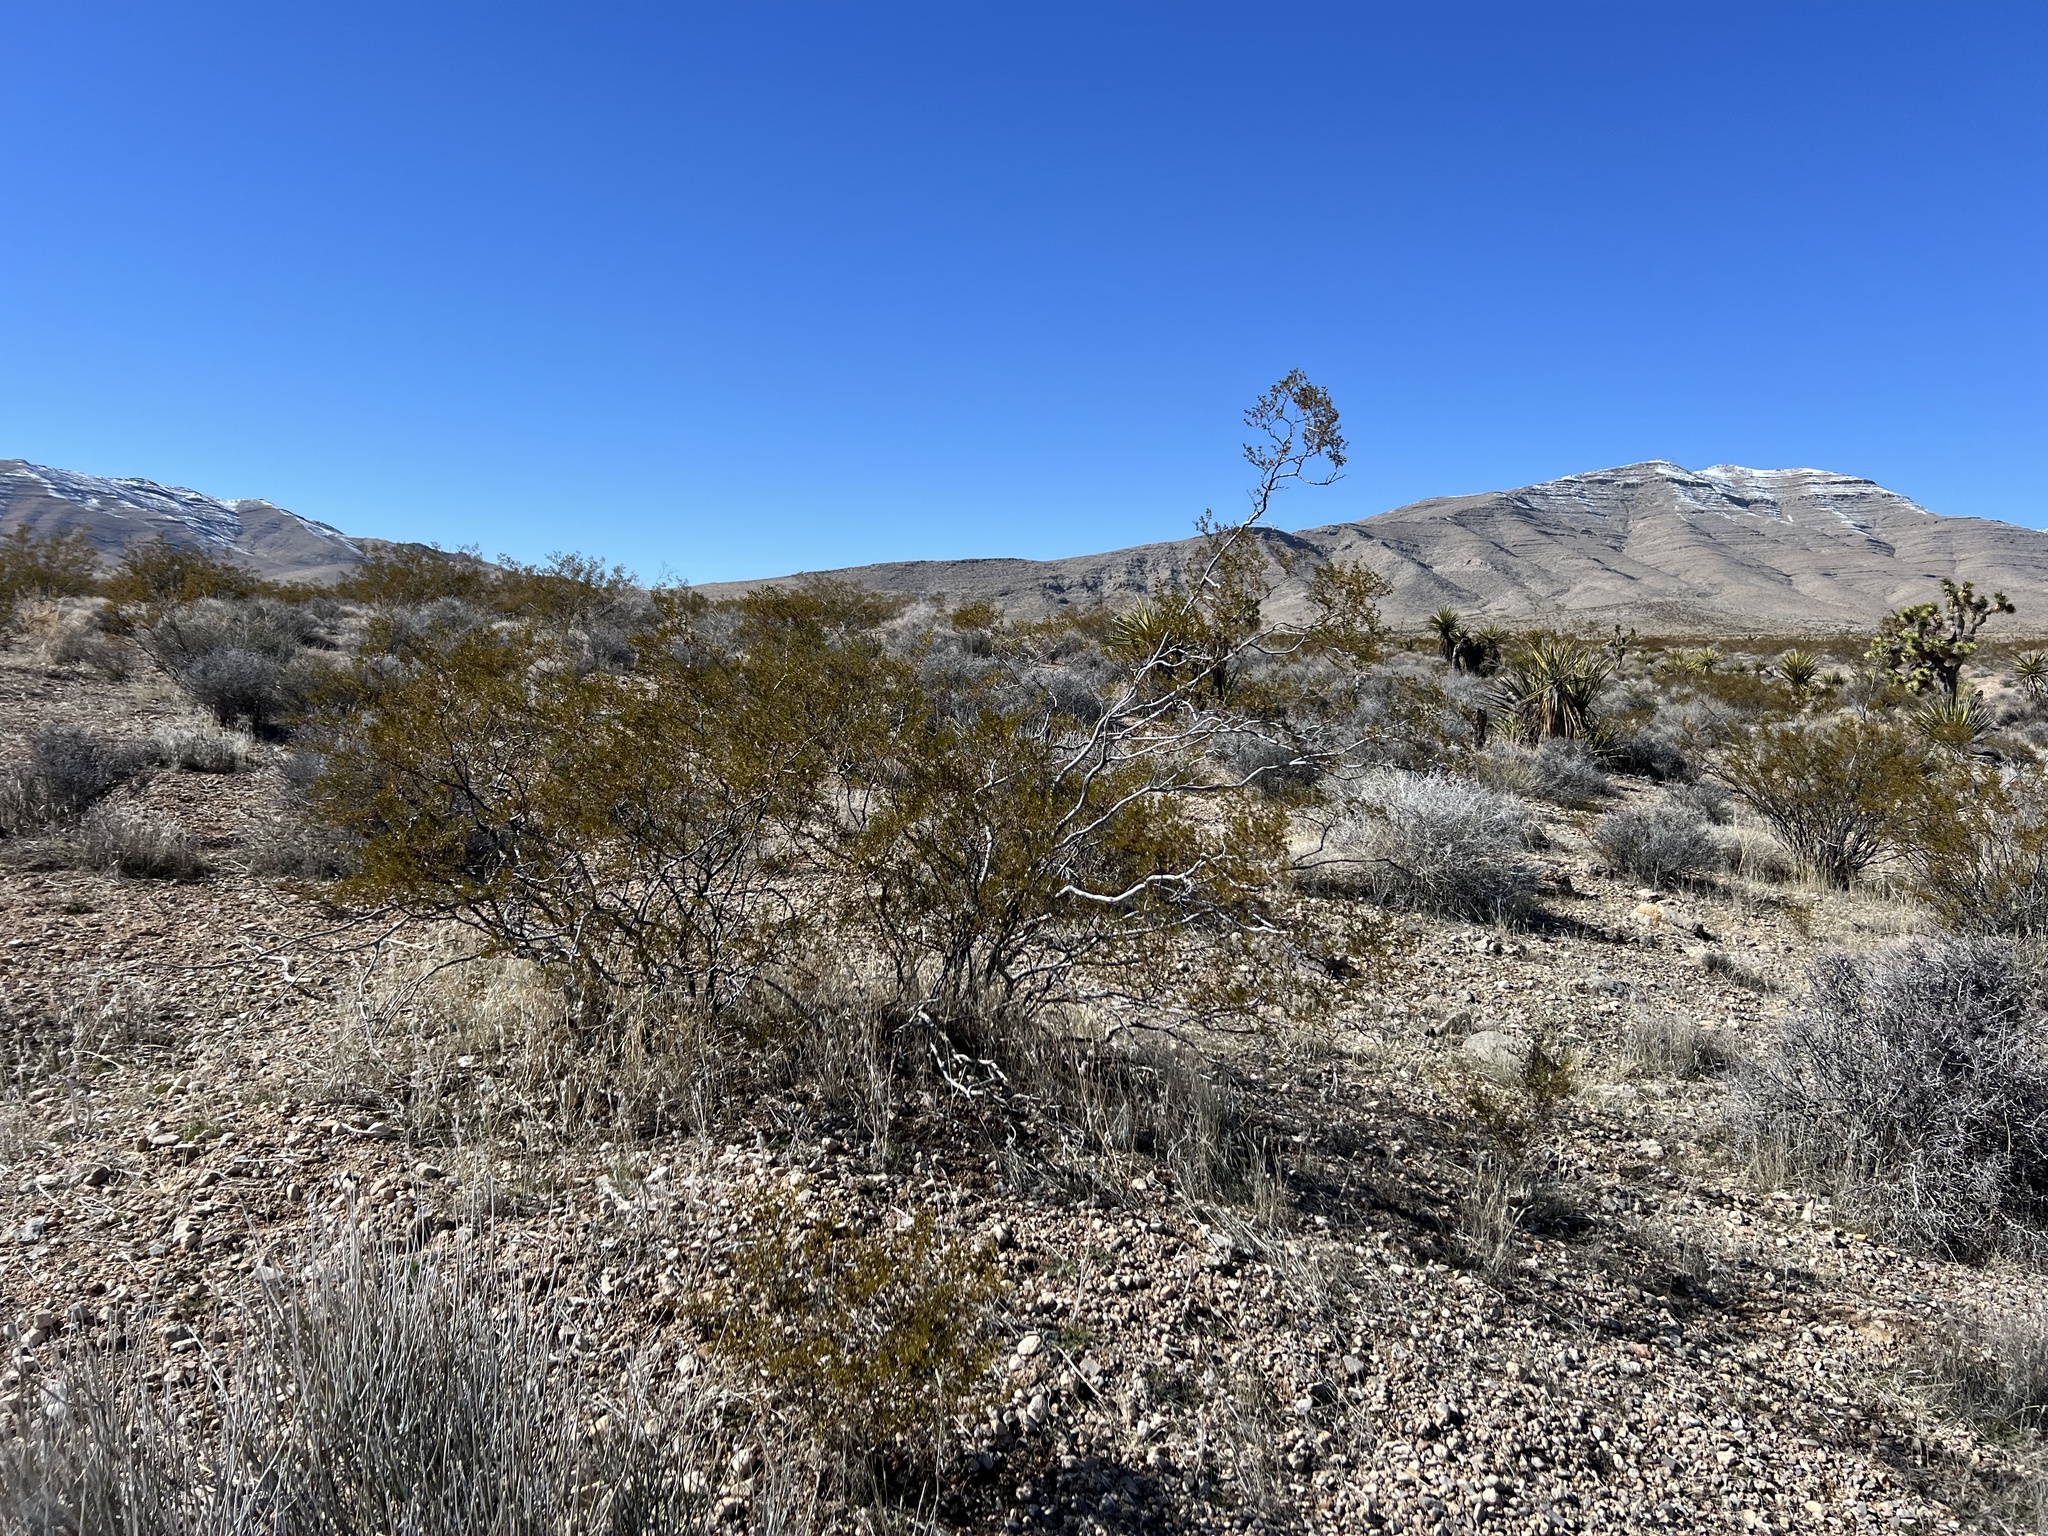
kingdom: Plantae
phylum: Tracheophyta
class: Magnoliopsida
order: Zygophyllales
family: Zygophyllaceae
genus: Larrea
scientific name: Larrea tridentata
